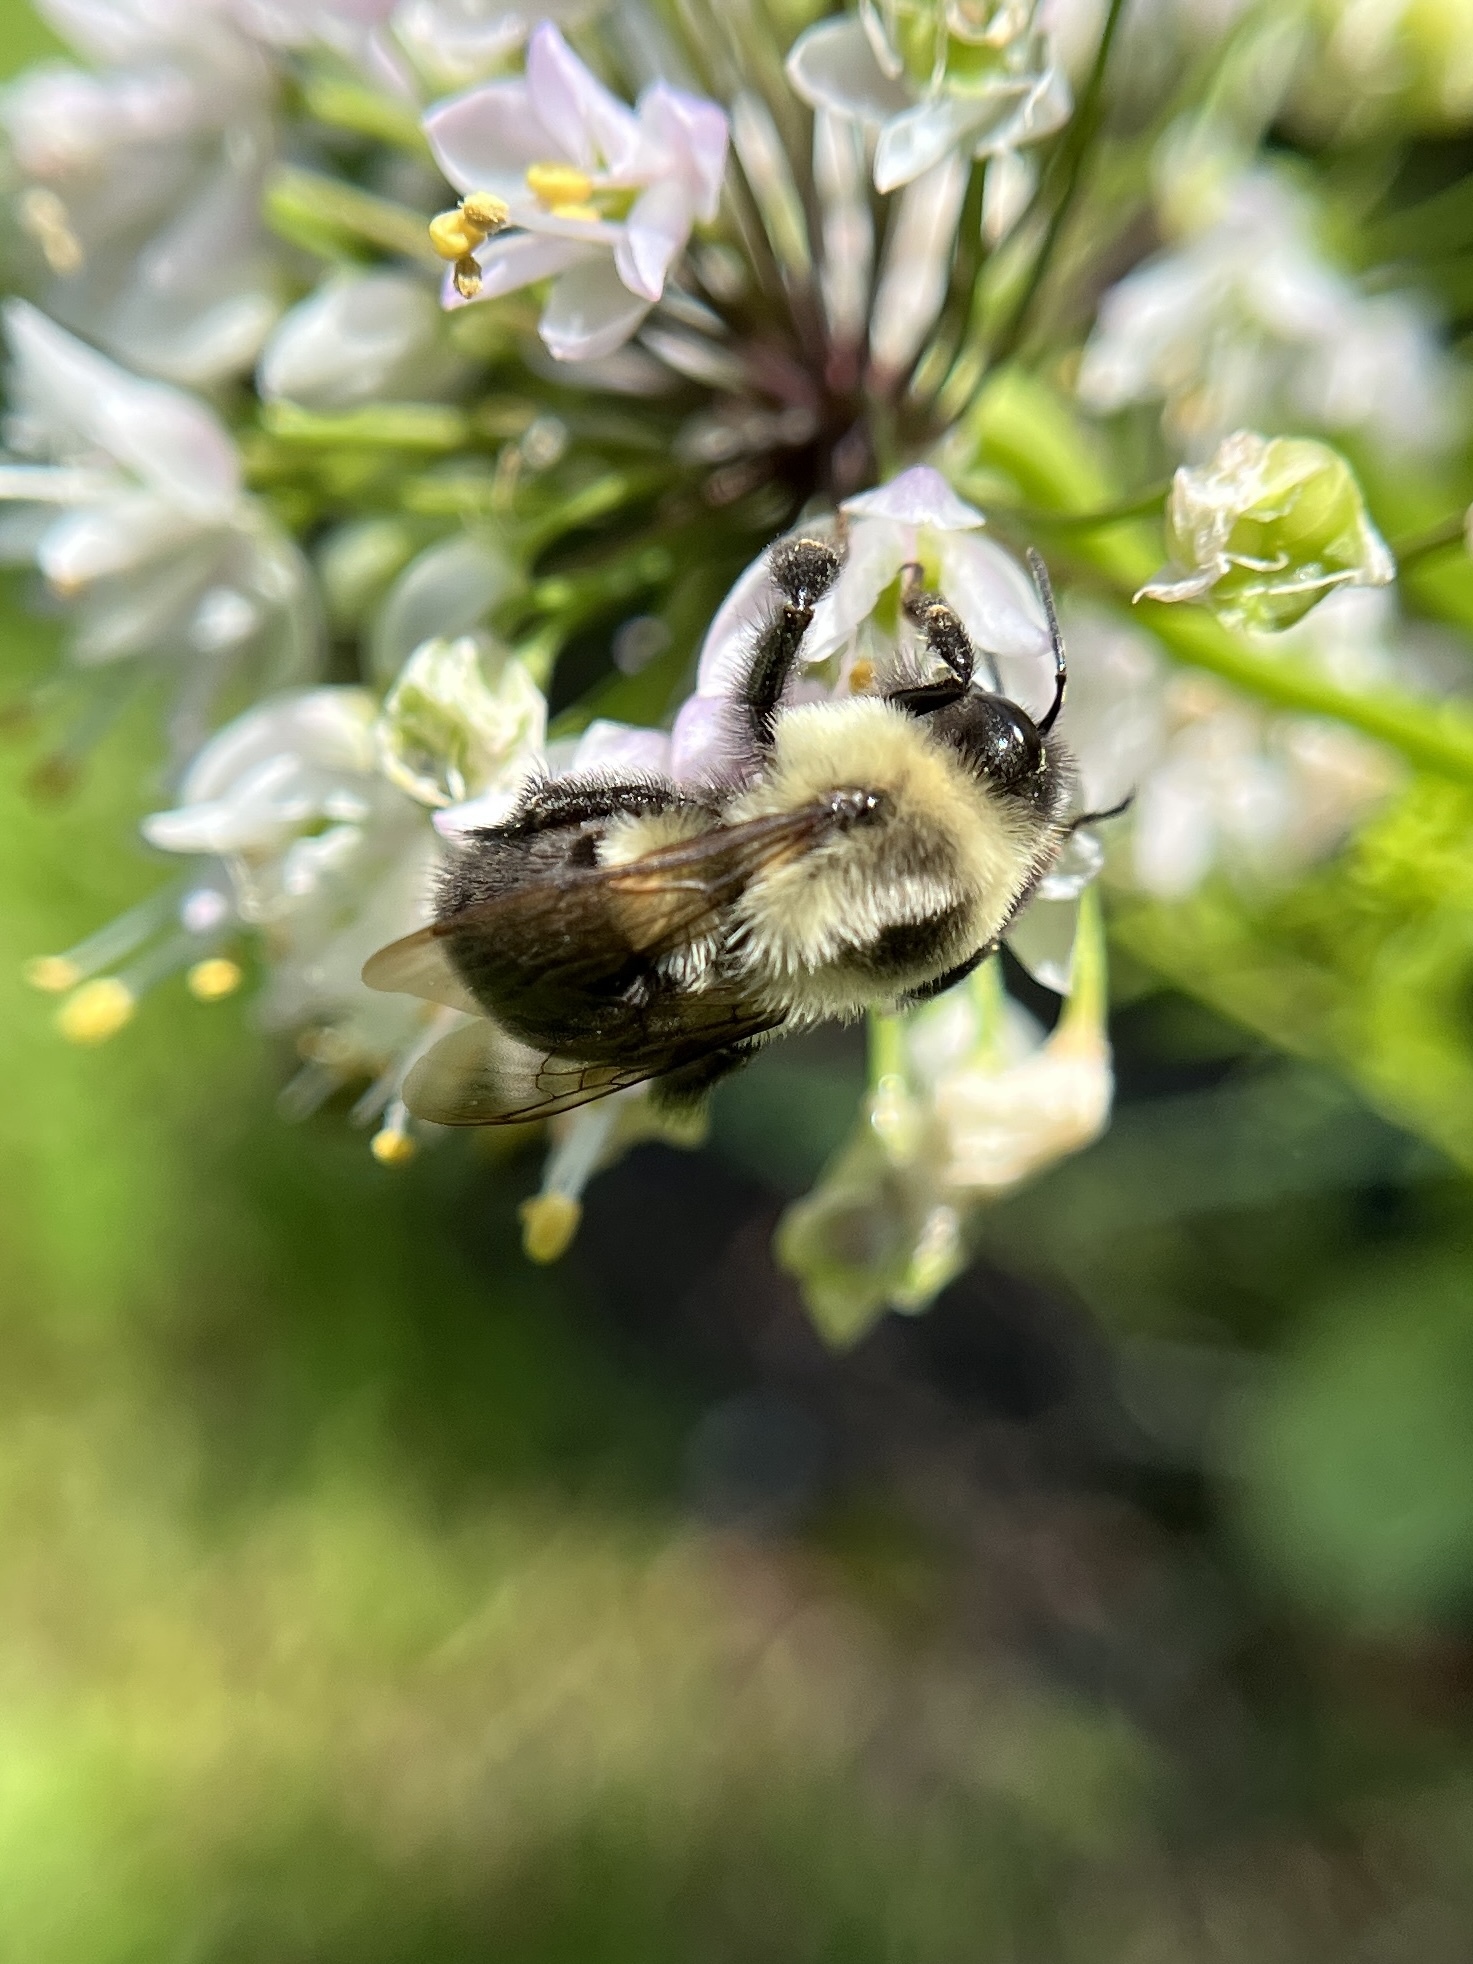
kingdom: Animalia
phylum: Arthropoda
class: Insecta
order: Hymenoptera
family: Apidae
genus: Bombus
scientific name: Bombus impatiens
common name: Common eastern bumble bee
